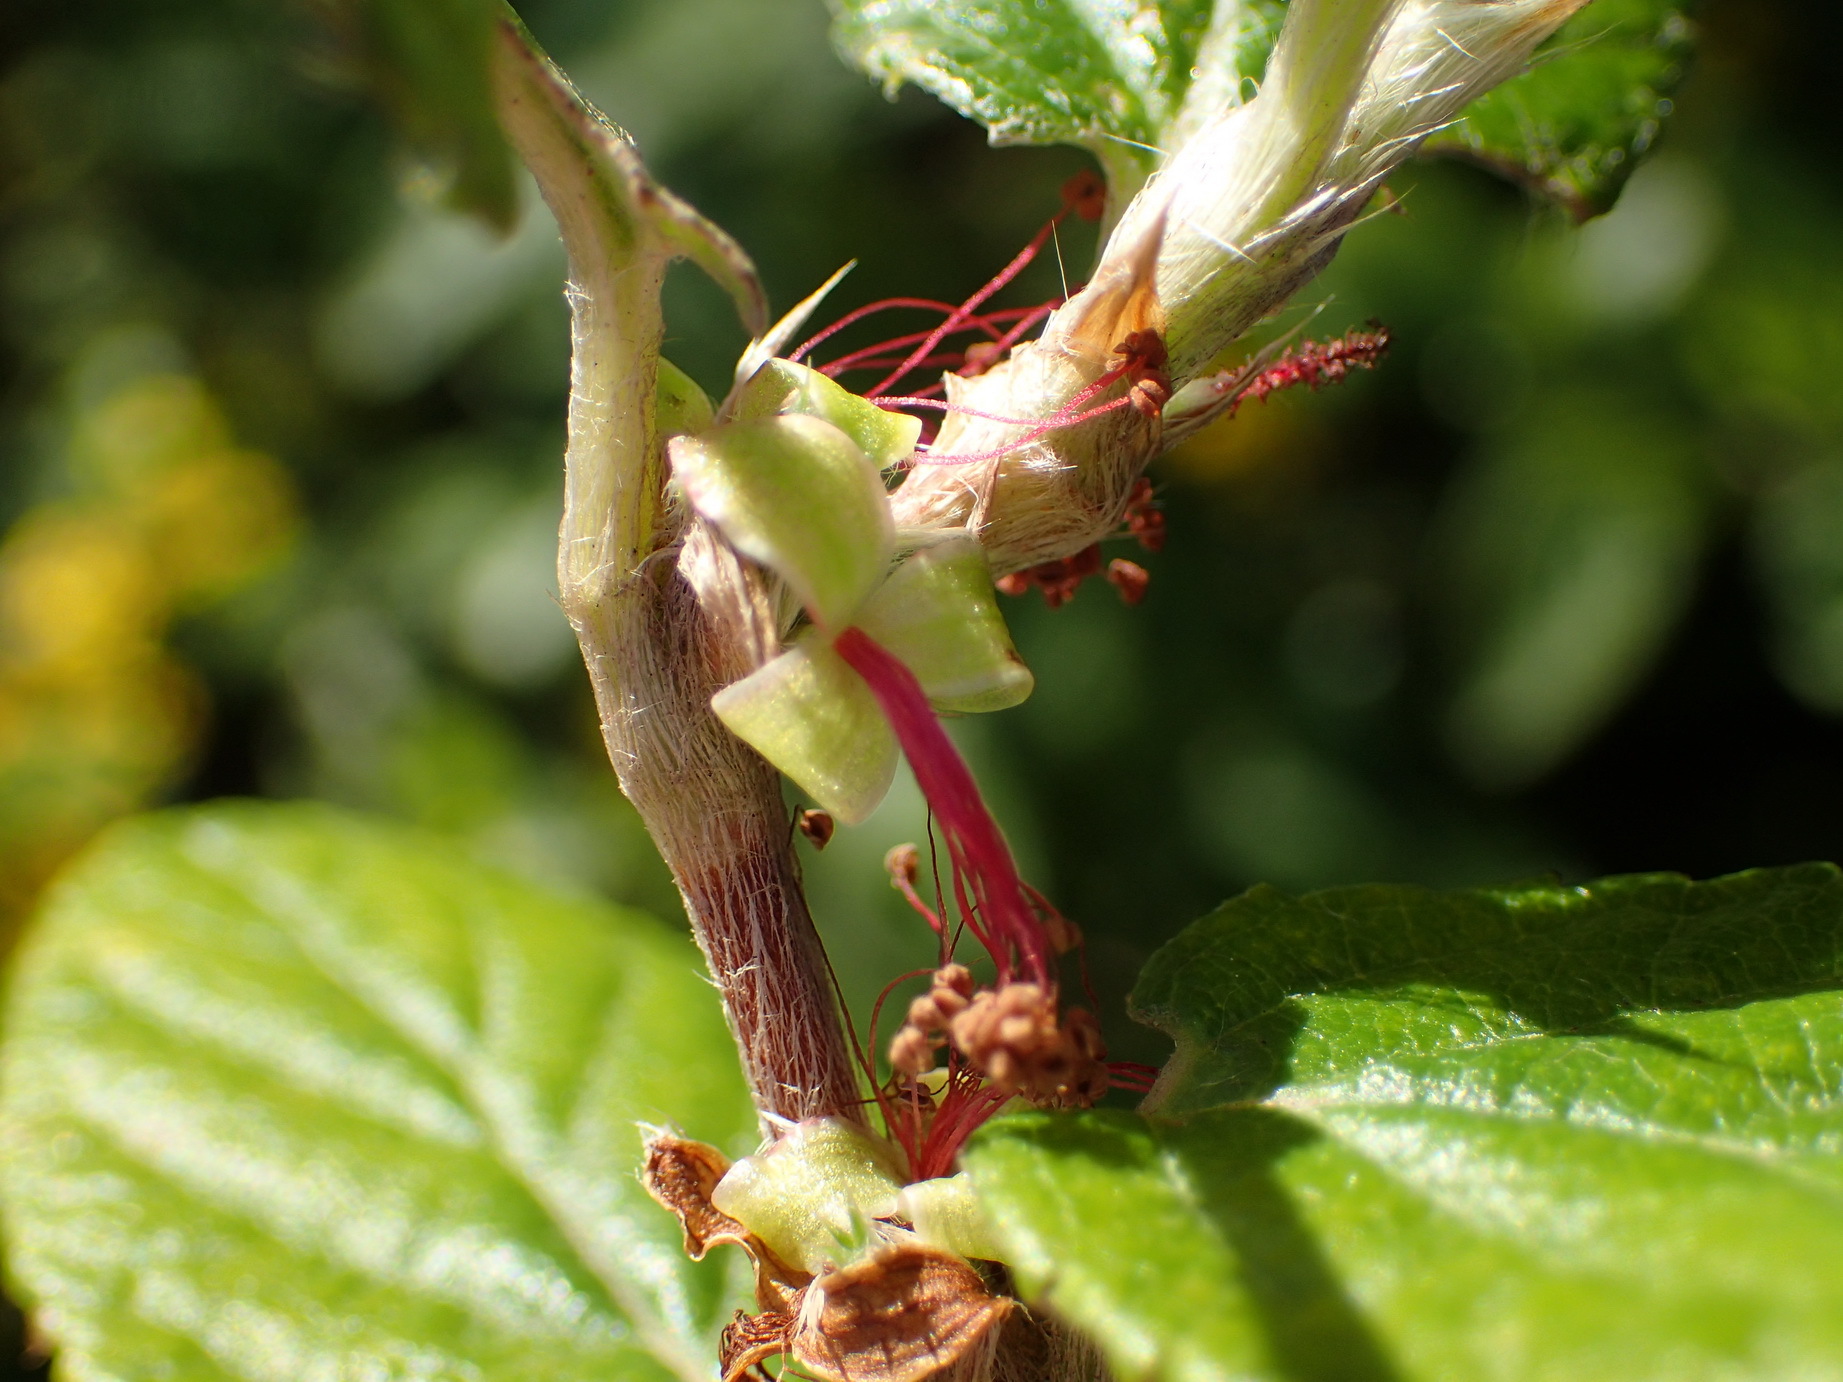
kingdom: Plantae
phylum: Tracheophyta
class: Magnoliopsida
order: Rosales
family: Rosaceae
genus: Cliffortia
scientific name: Cliffortia odorata
